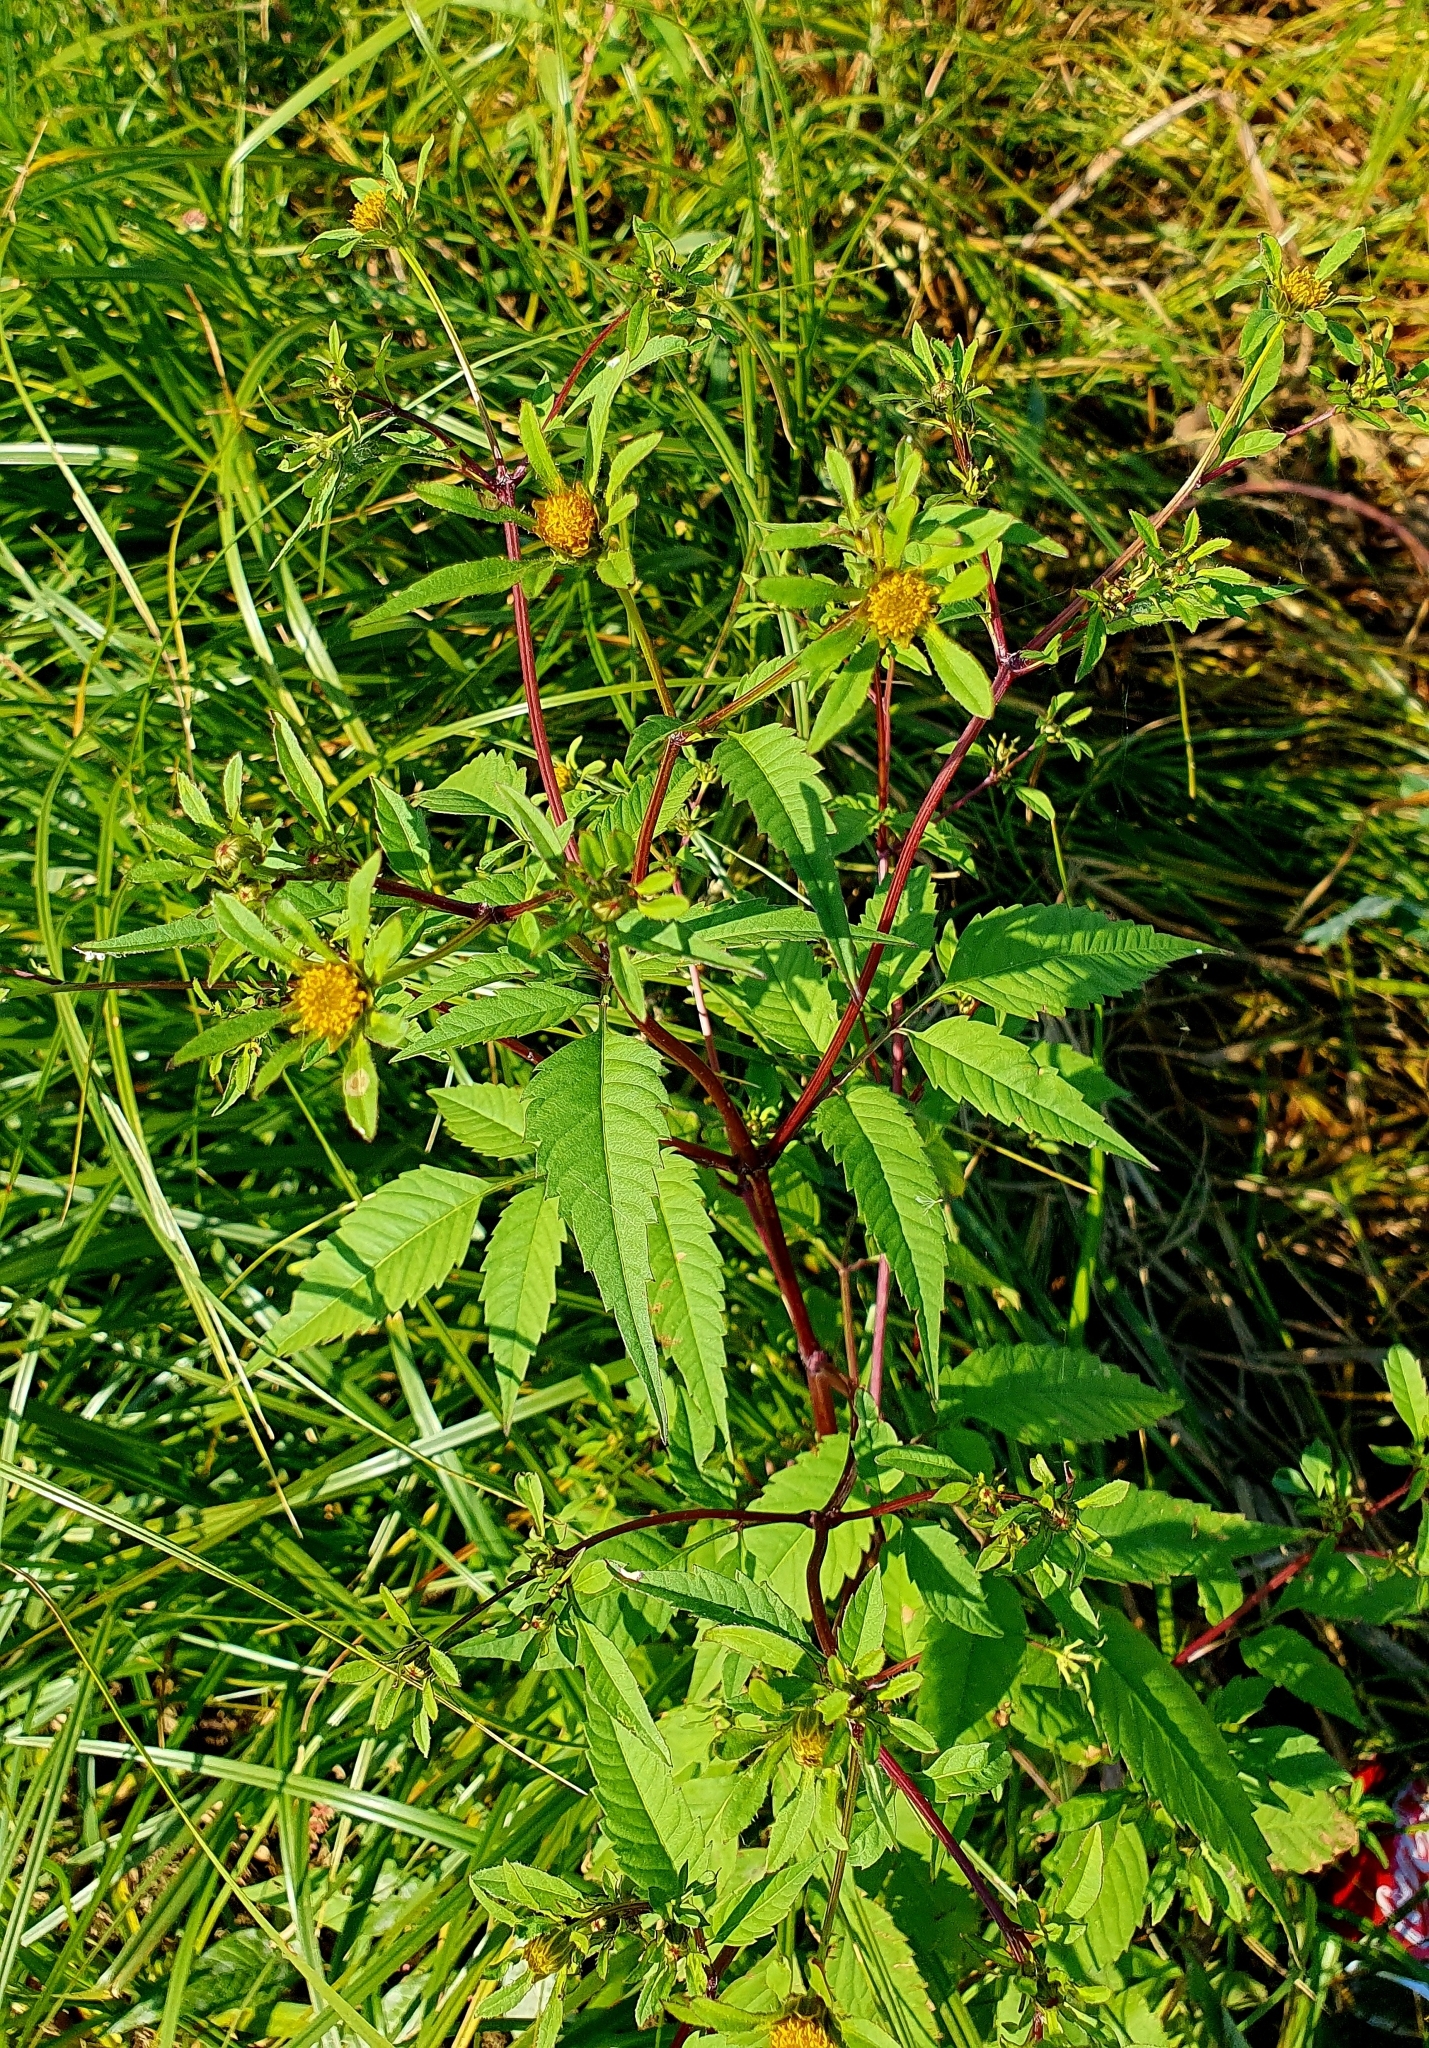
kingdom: Plantae
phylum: Tracheophyta
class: Magnoliopsida
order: Asterales
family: Asteraceae
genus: Bidens
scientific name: Bidens frondosa
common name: Beggarticks
